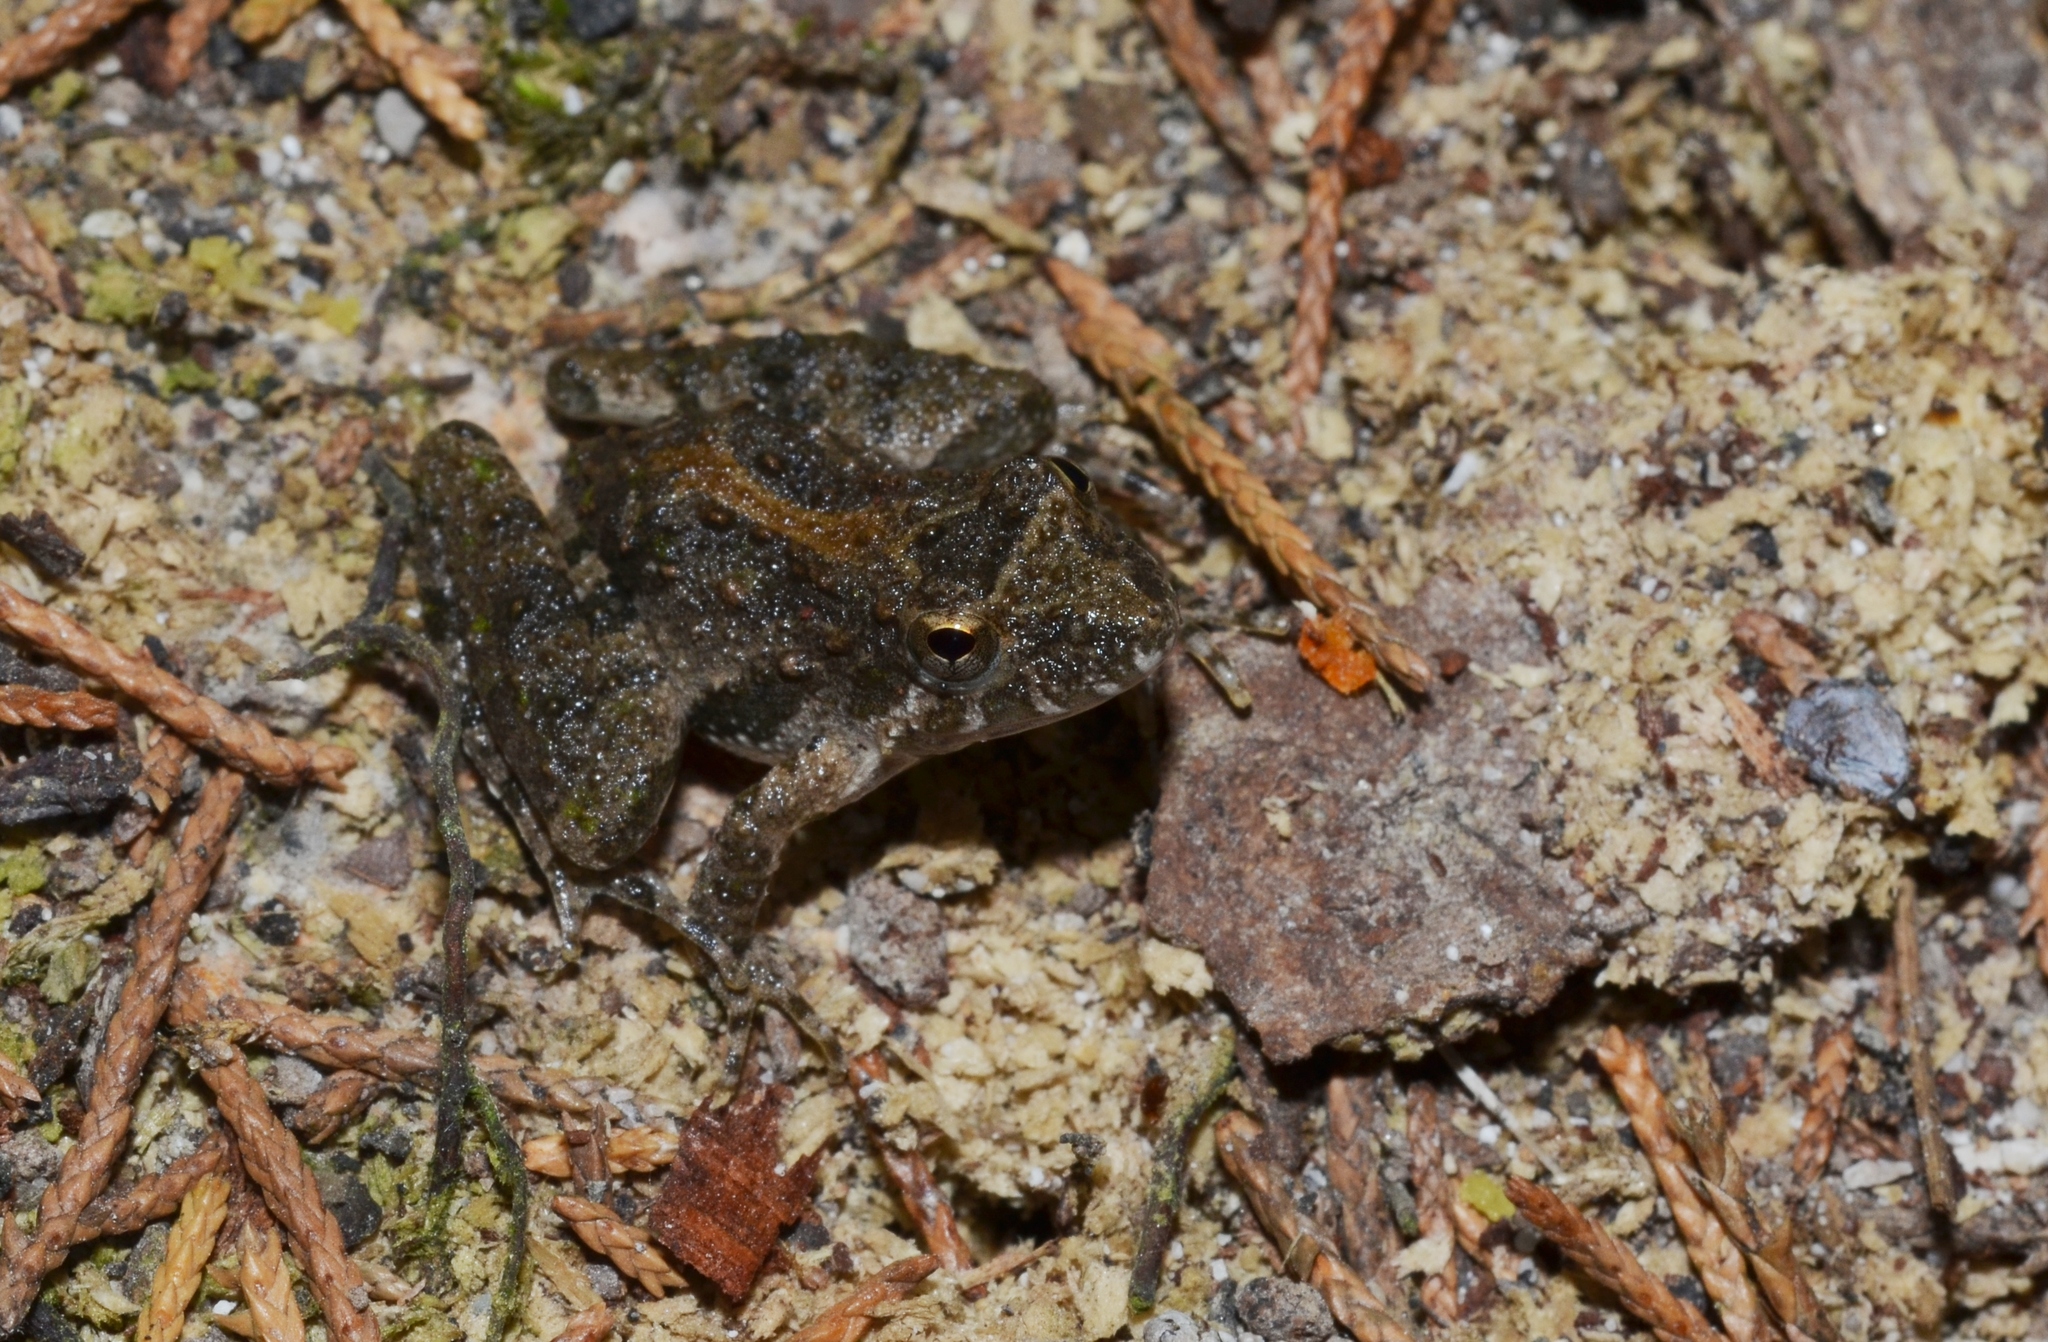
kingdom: Animalia
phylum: Chordata
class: Amphibia
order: Anura
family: Hylidae
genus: Acris
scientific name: Acris blanchardi
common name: Blanchard's cricket frog
